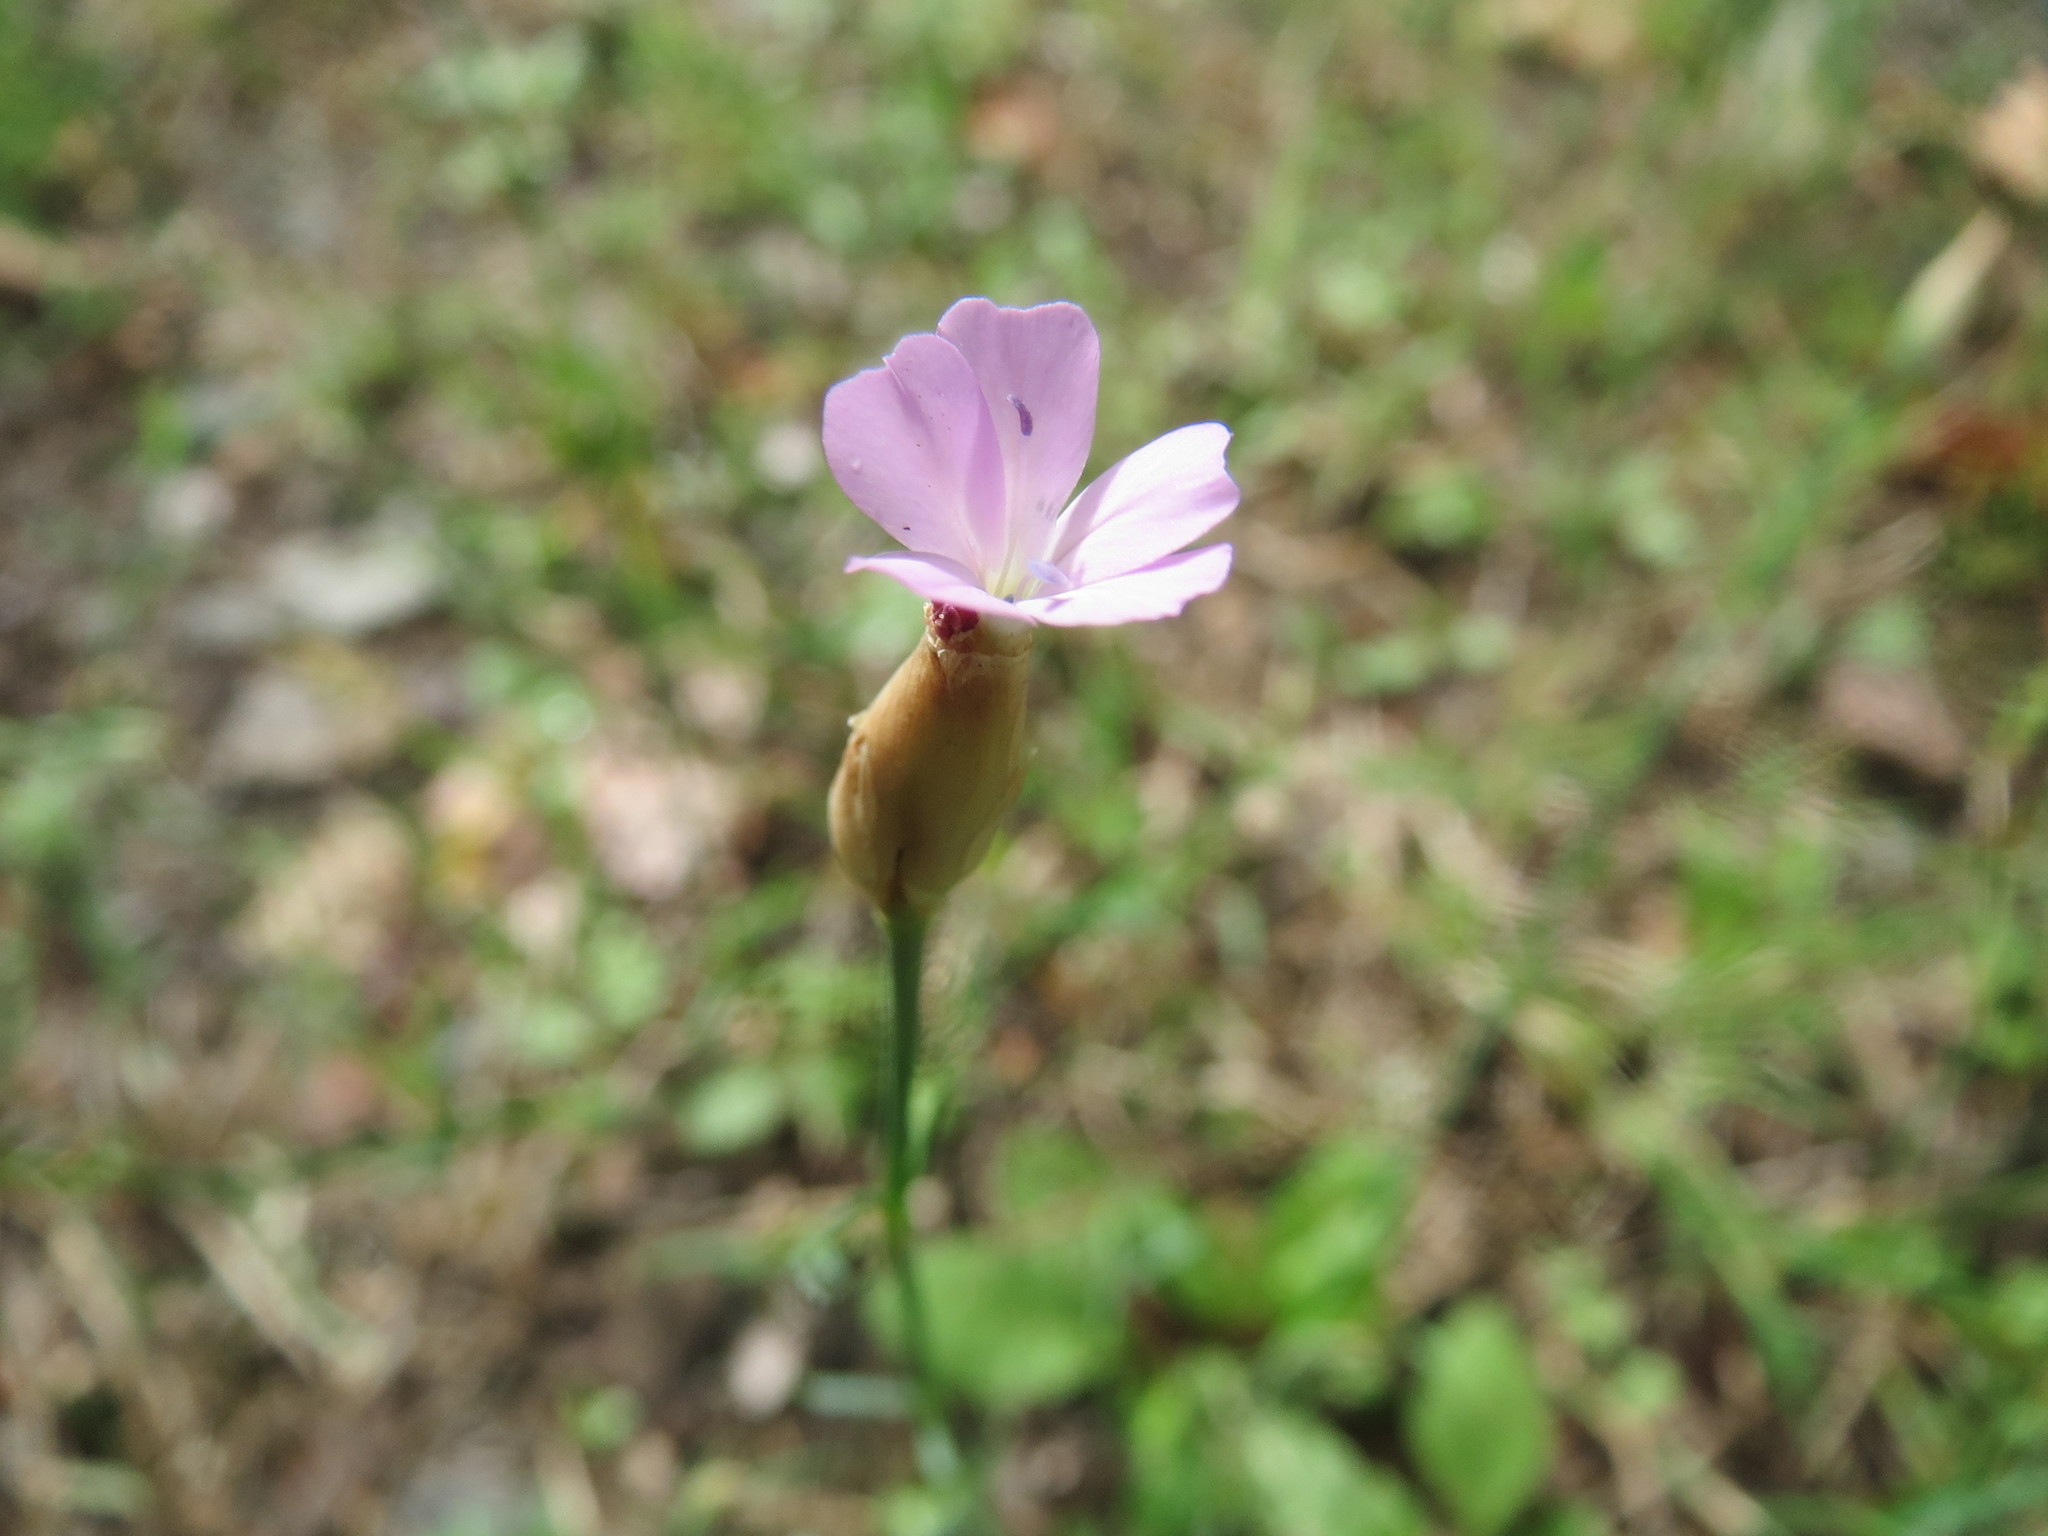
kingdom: Plantae
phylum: Tracheophyta
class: Magnoliopsida
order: Caryophyllales
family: Caryophyllaceae
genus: Petrorhagia
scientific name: Petrorhagia prolifera
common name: Proliferous pink
